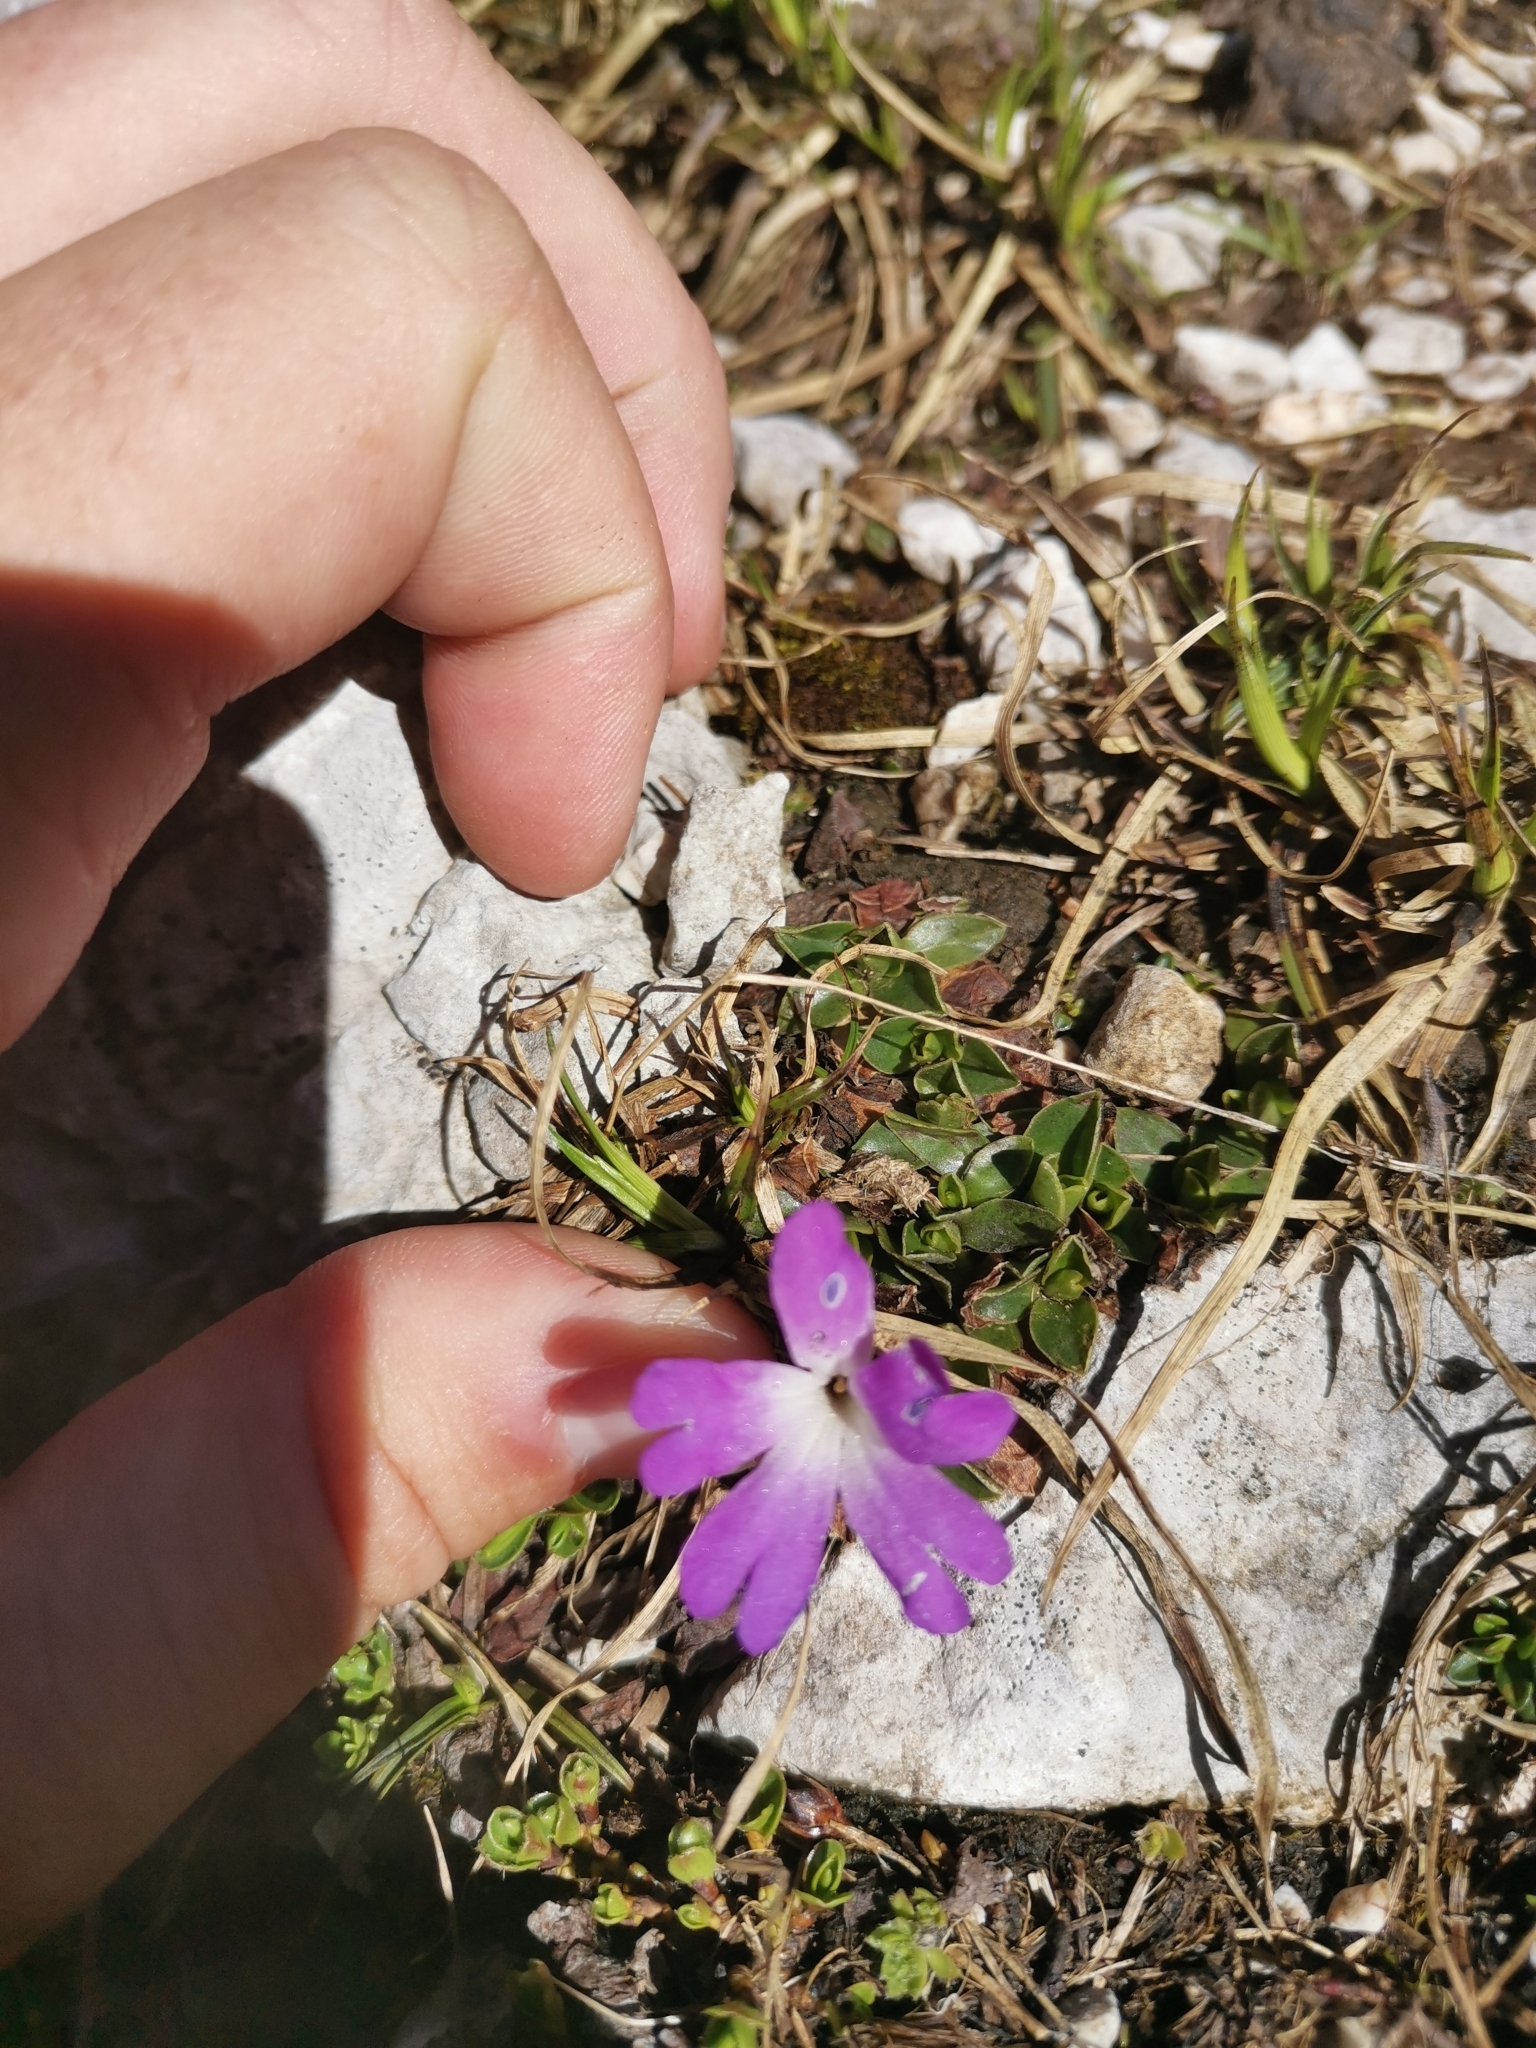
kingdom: Plantae
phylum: Tracheophyta
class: Magnoliopsida
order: Ericales
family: Primulaceae
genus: Primula
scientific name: Primula wulfeniana
